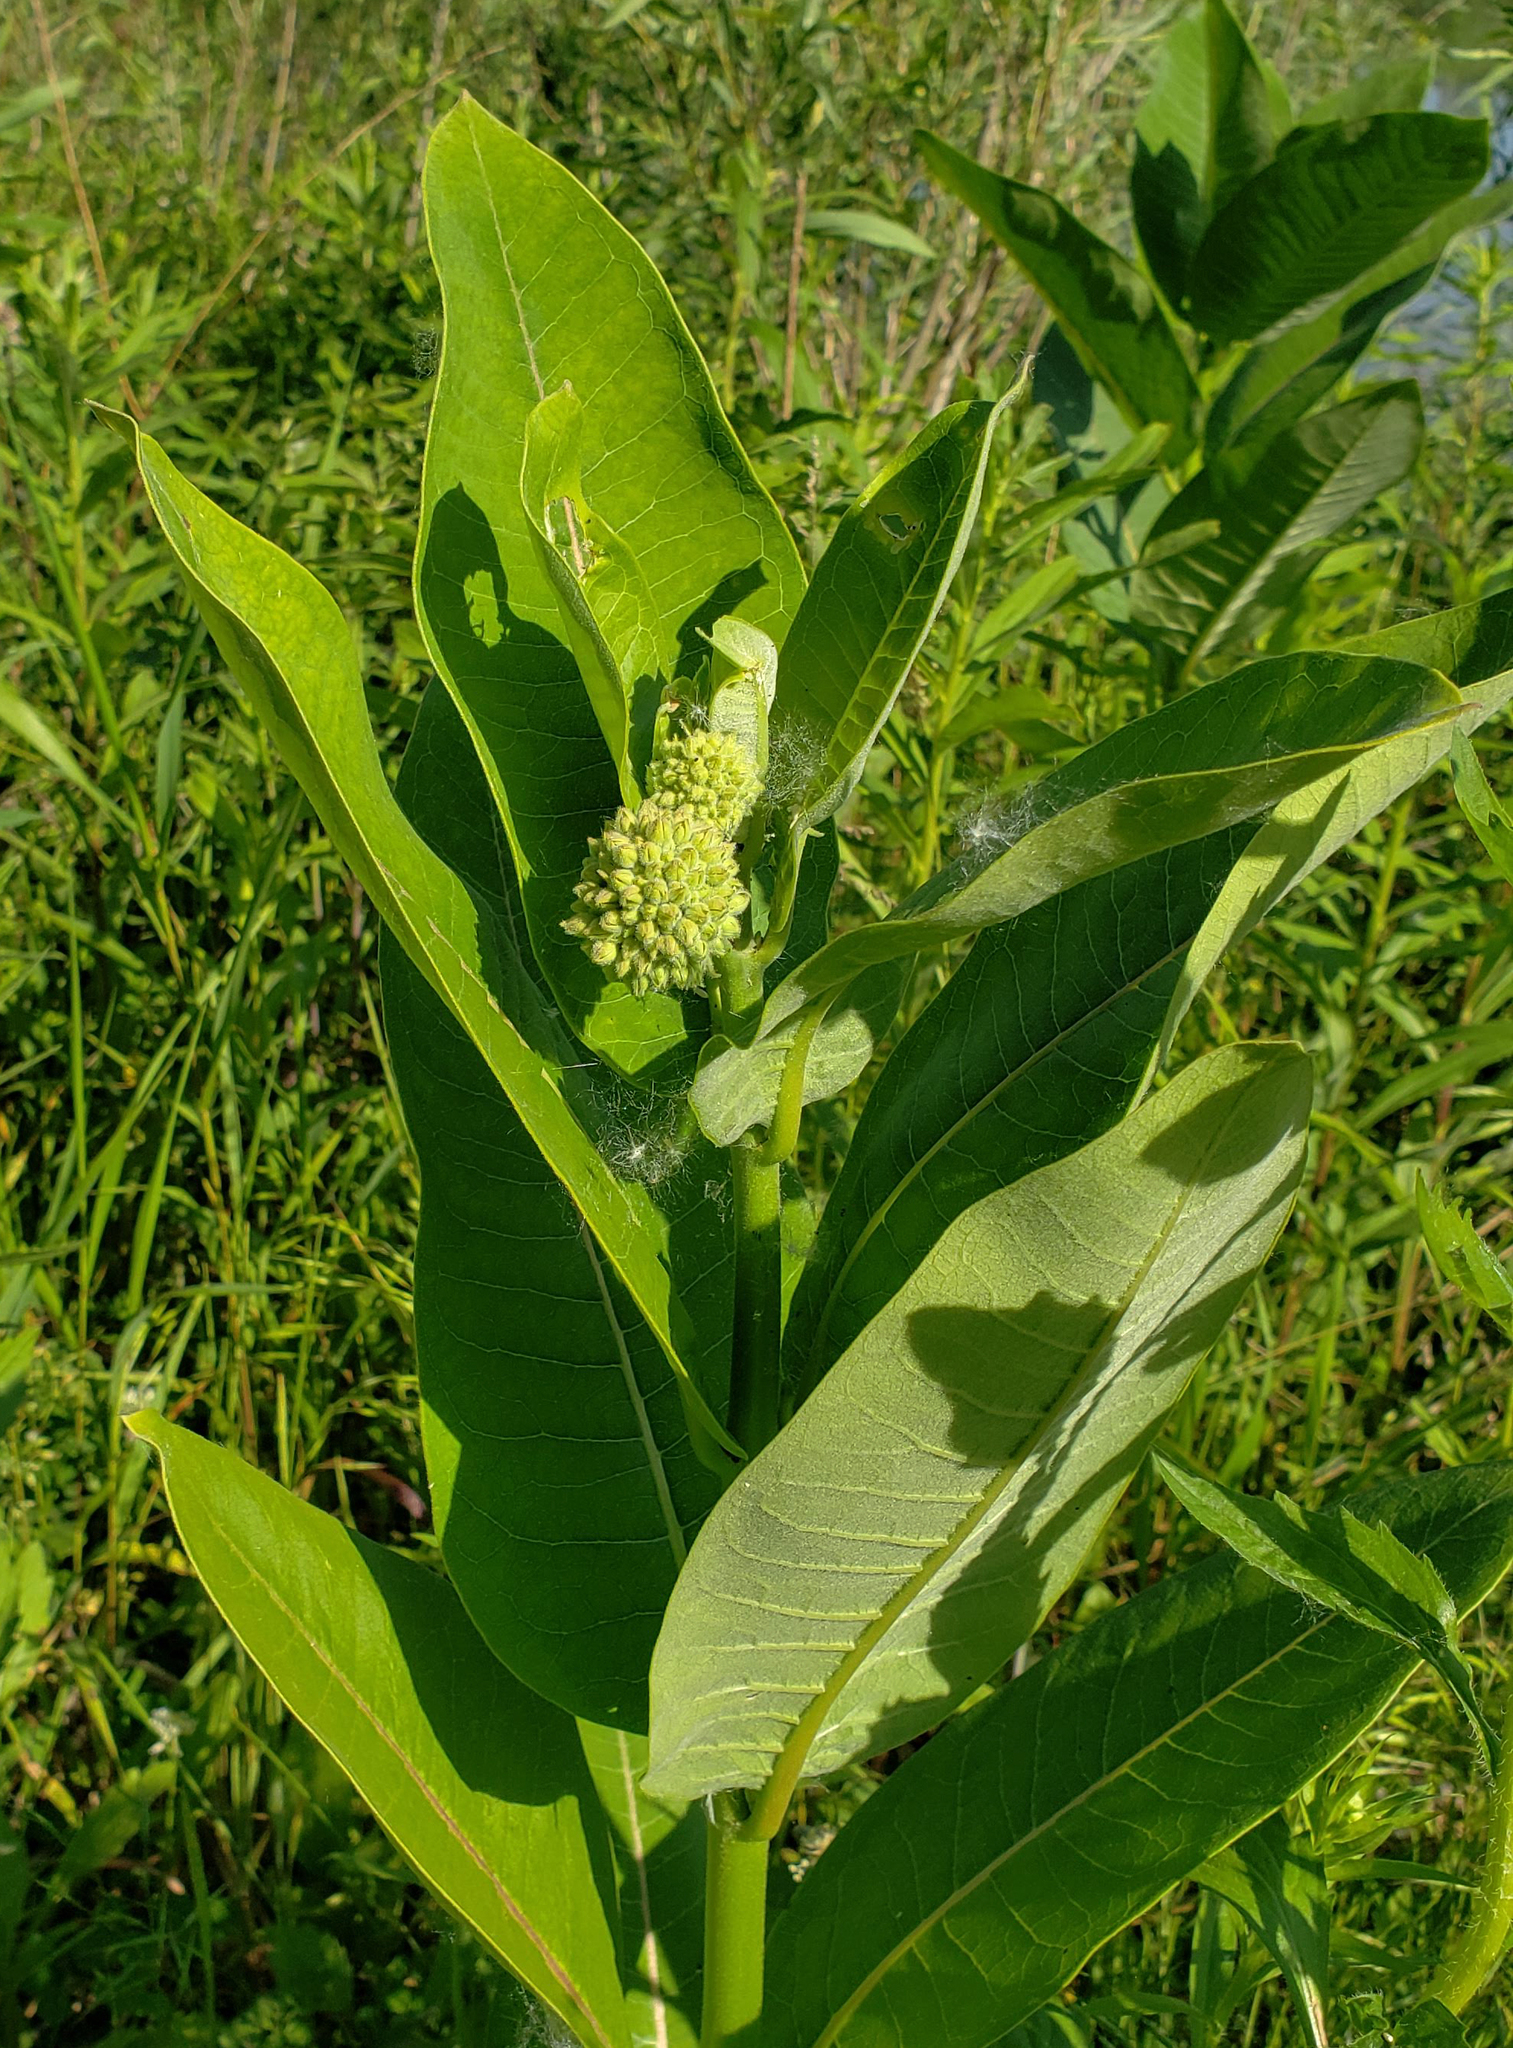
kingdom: Plantae
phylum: Tracheophyta
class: Magnoliopsida
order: Gentianales
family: Apocynaceae
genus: Asclepias
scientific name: Asclepias syriaca
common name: Common milkweed
